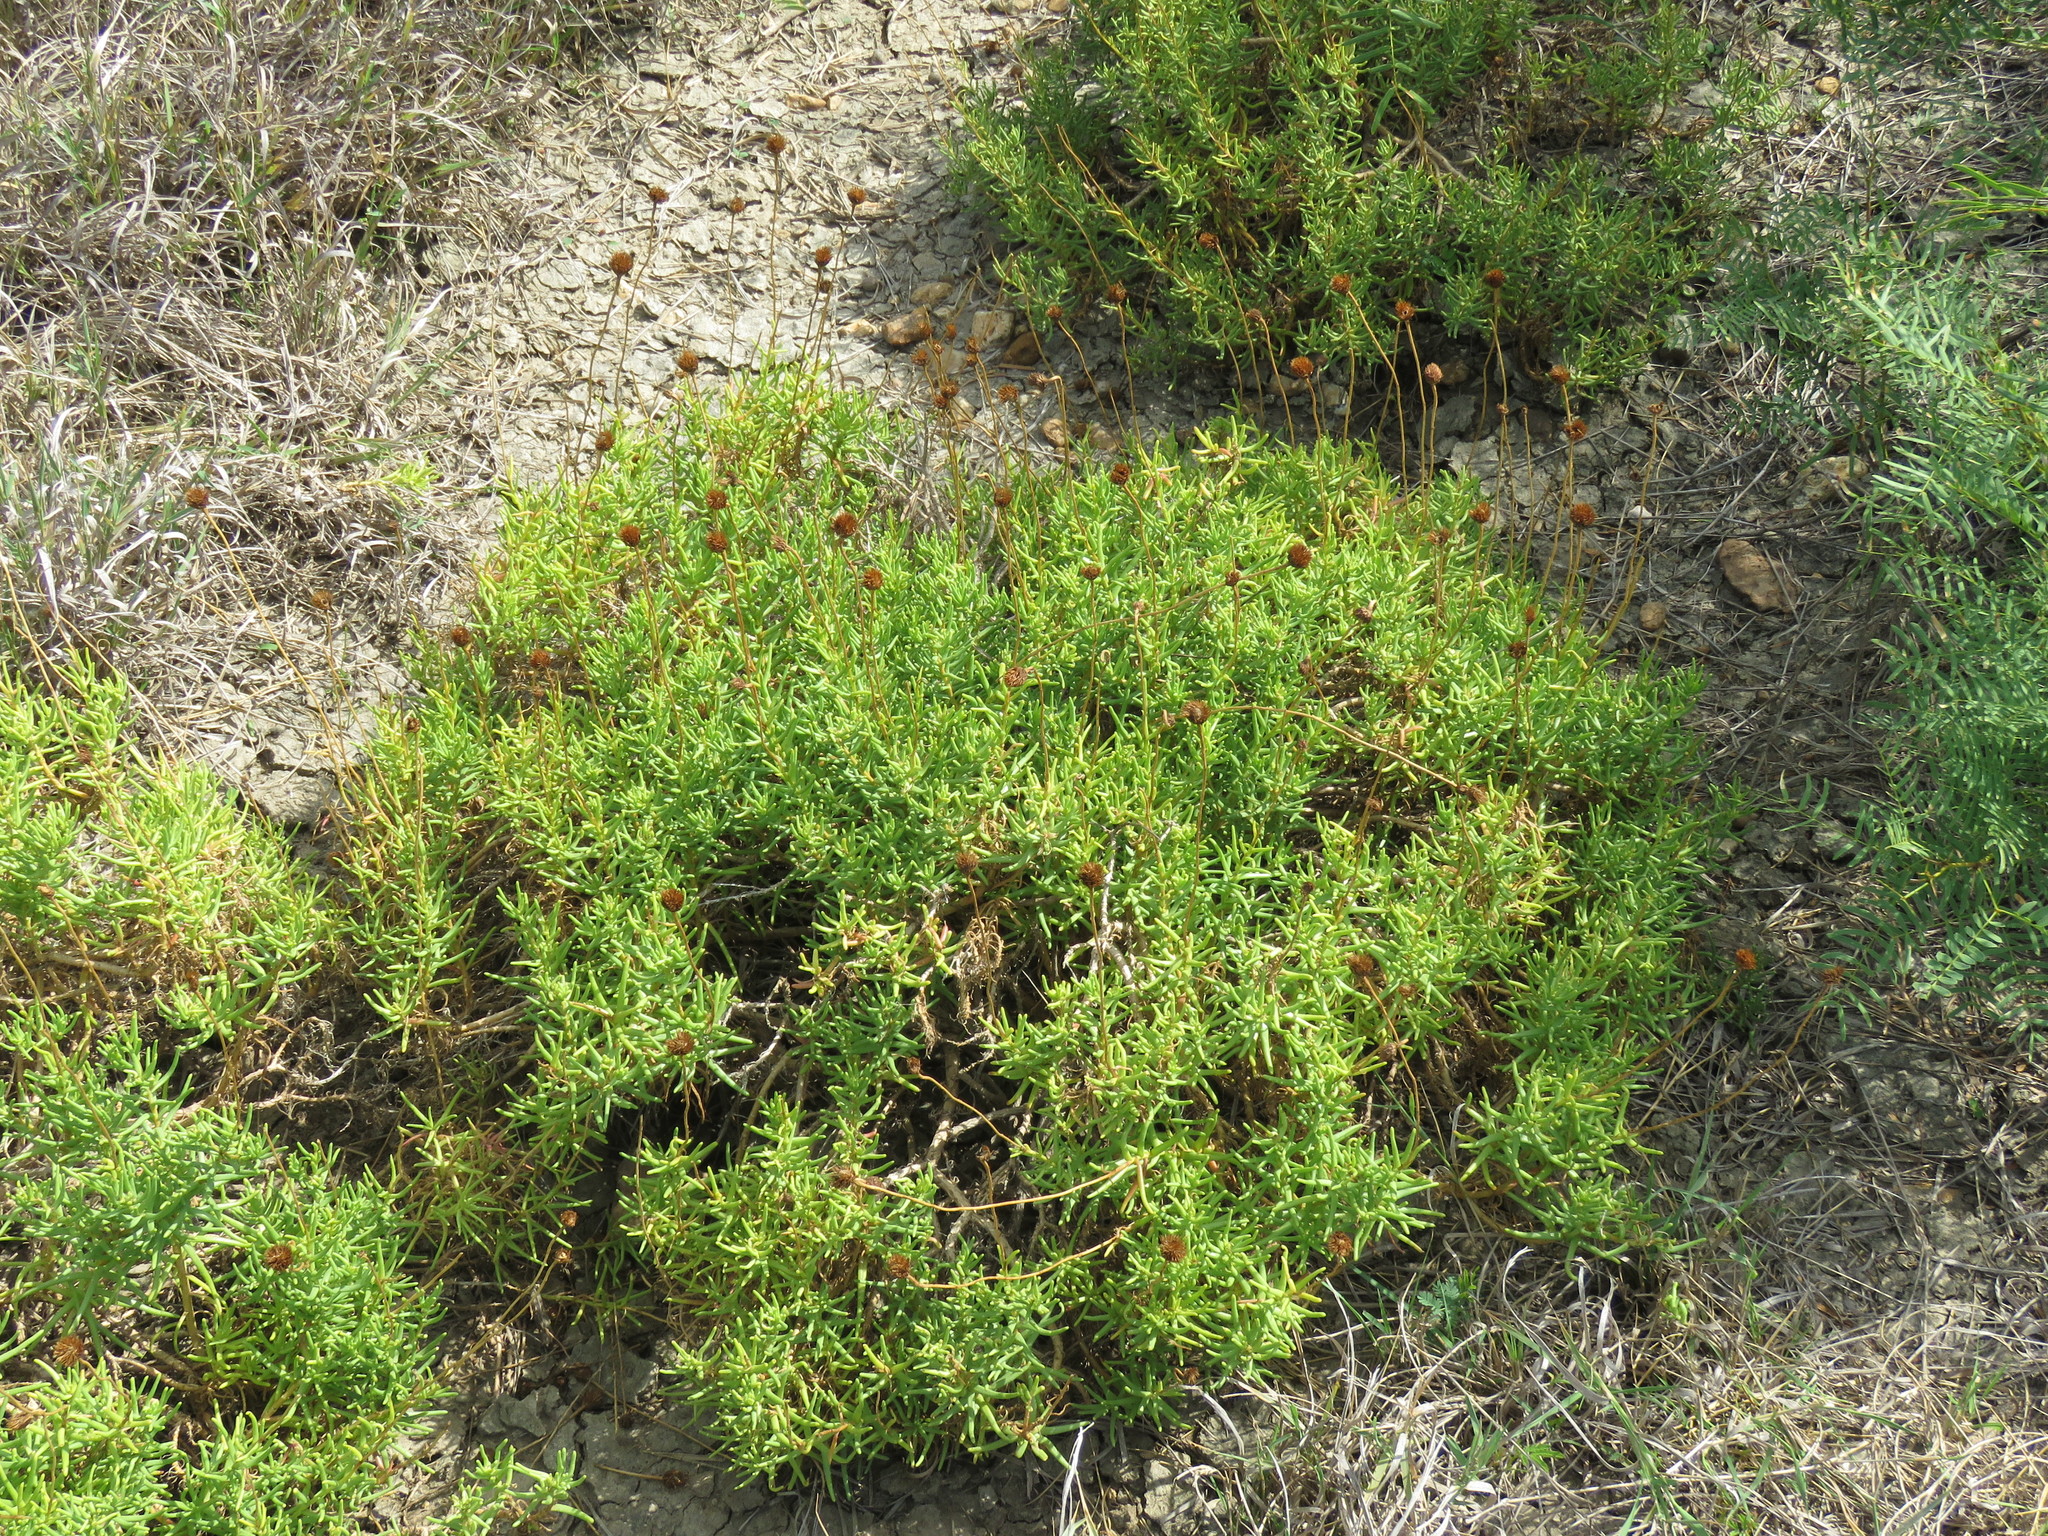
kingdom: Plantae
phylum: Tracheophyta
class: Magnoliopsida
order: Asterales
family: Asteraceae
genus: Varilla
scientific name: Varilla texana
